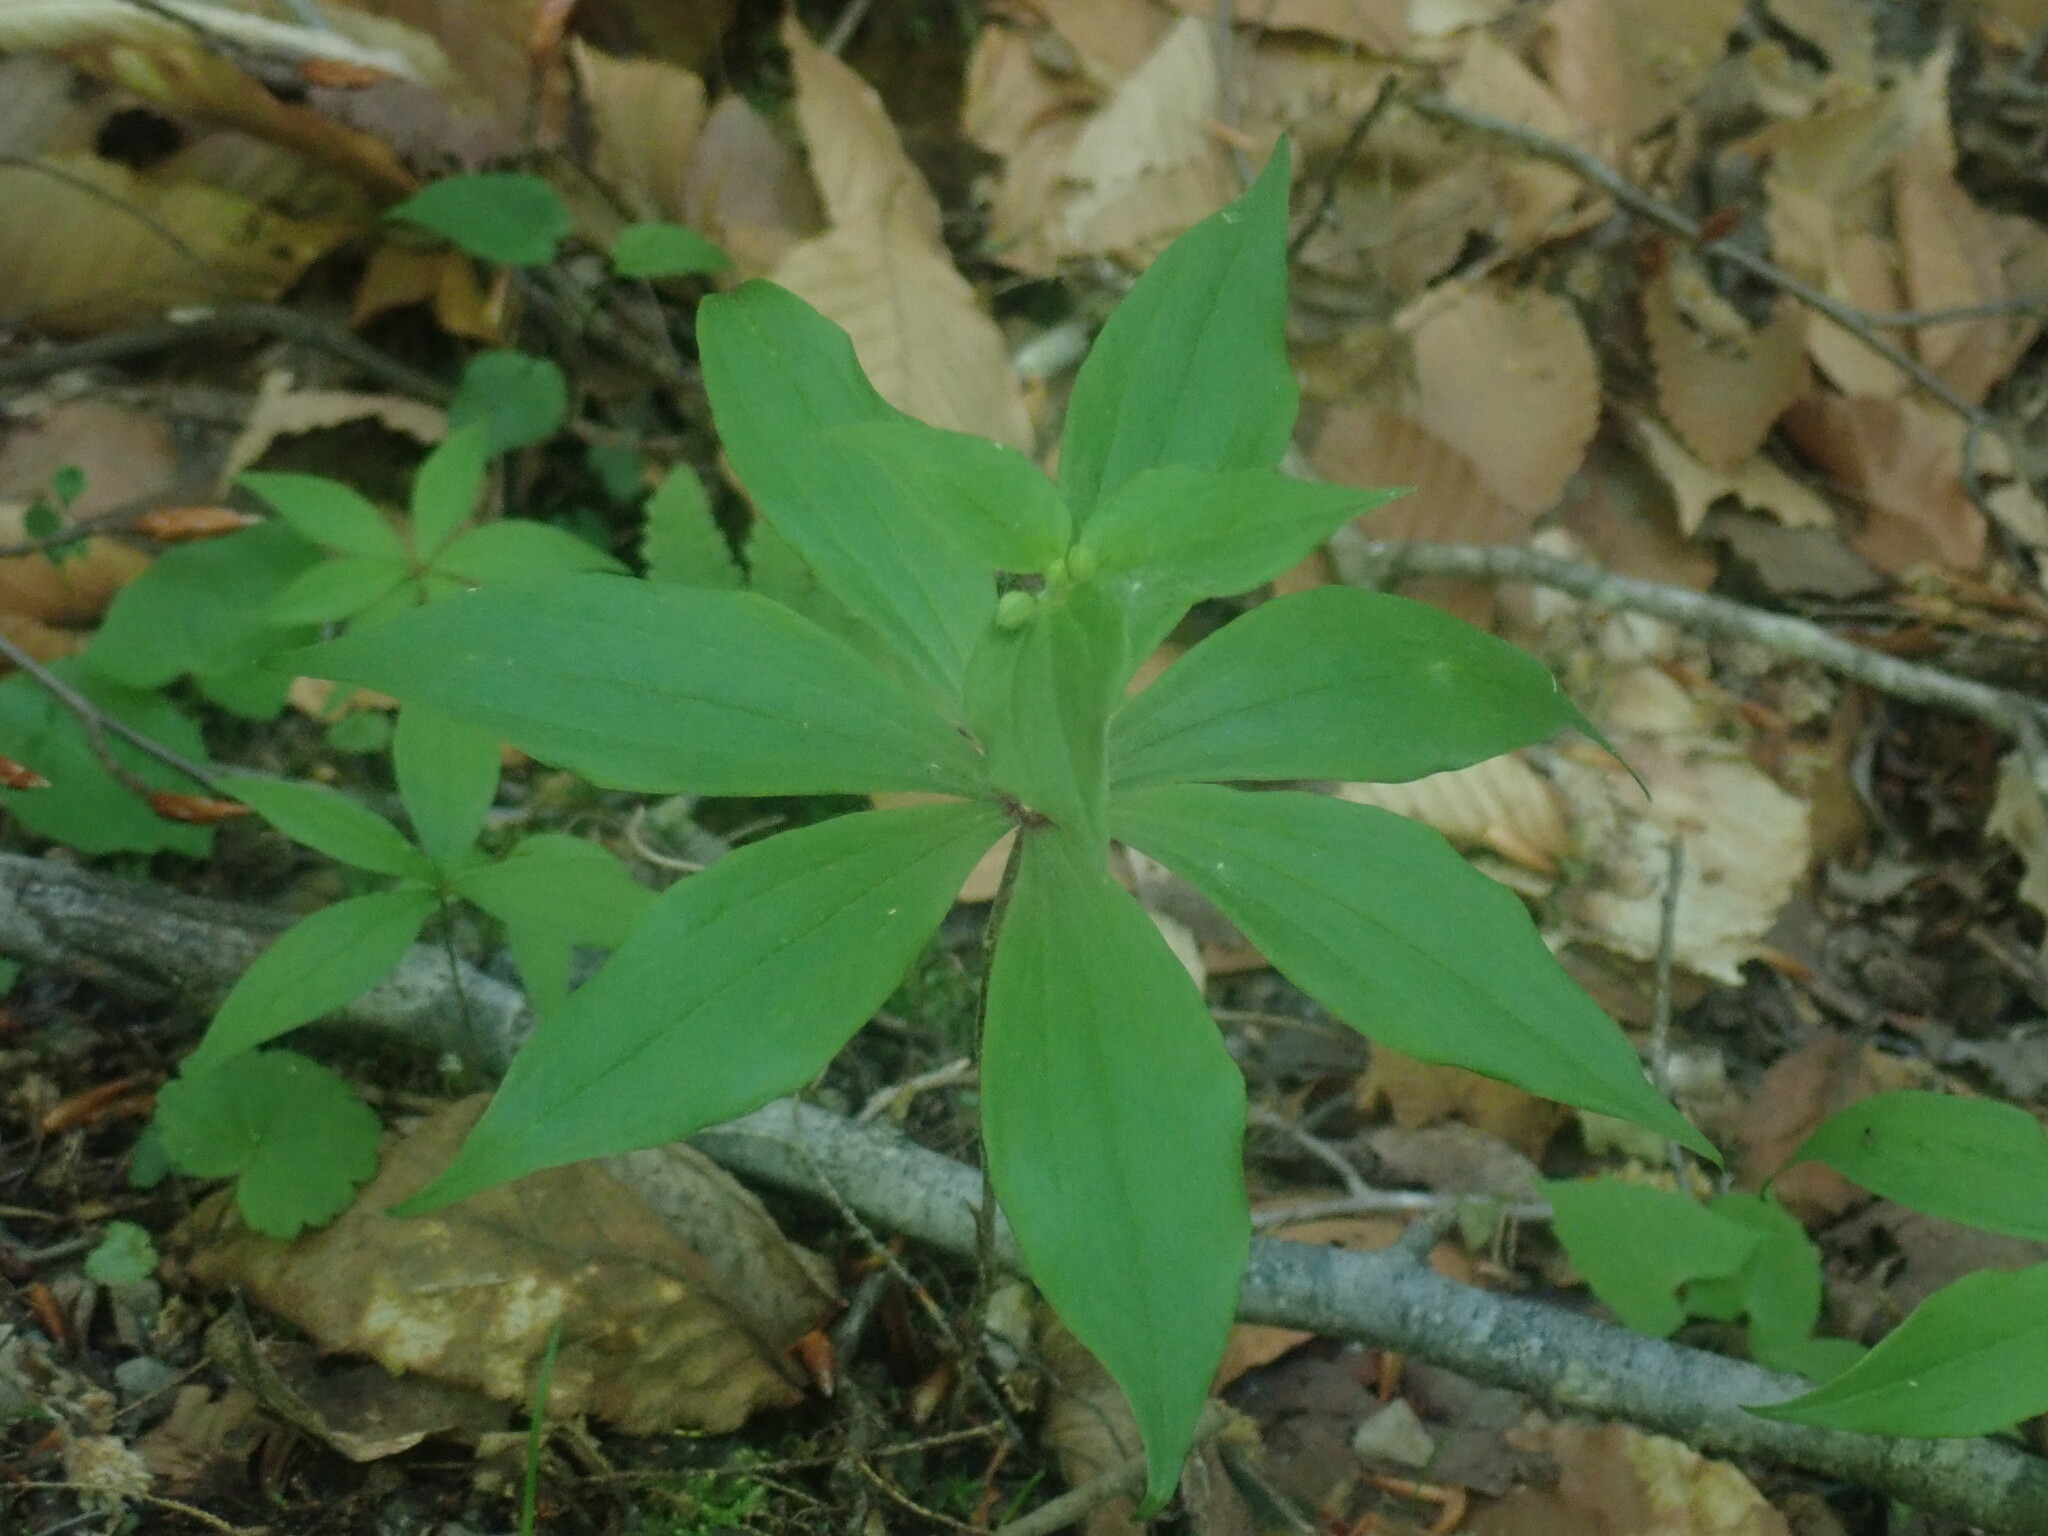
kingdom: Plantae
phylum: Tracheophyta
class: Liliopsida
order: Liliales
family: Liliaceae
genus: Medeola
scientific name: Medeola virginiana
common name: Indian cucumber-root
